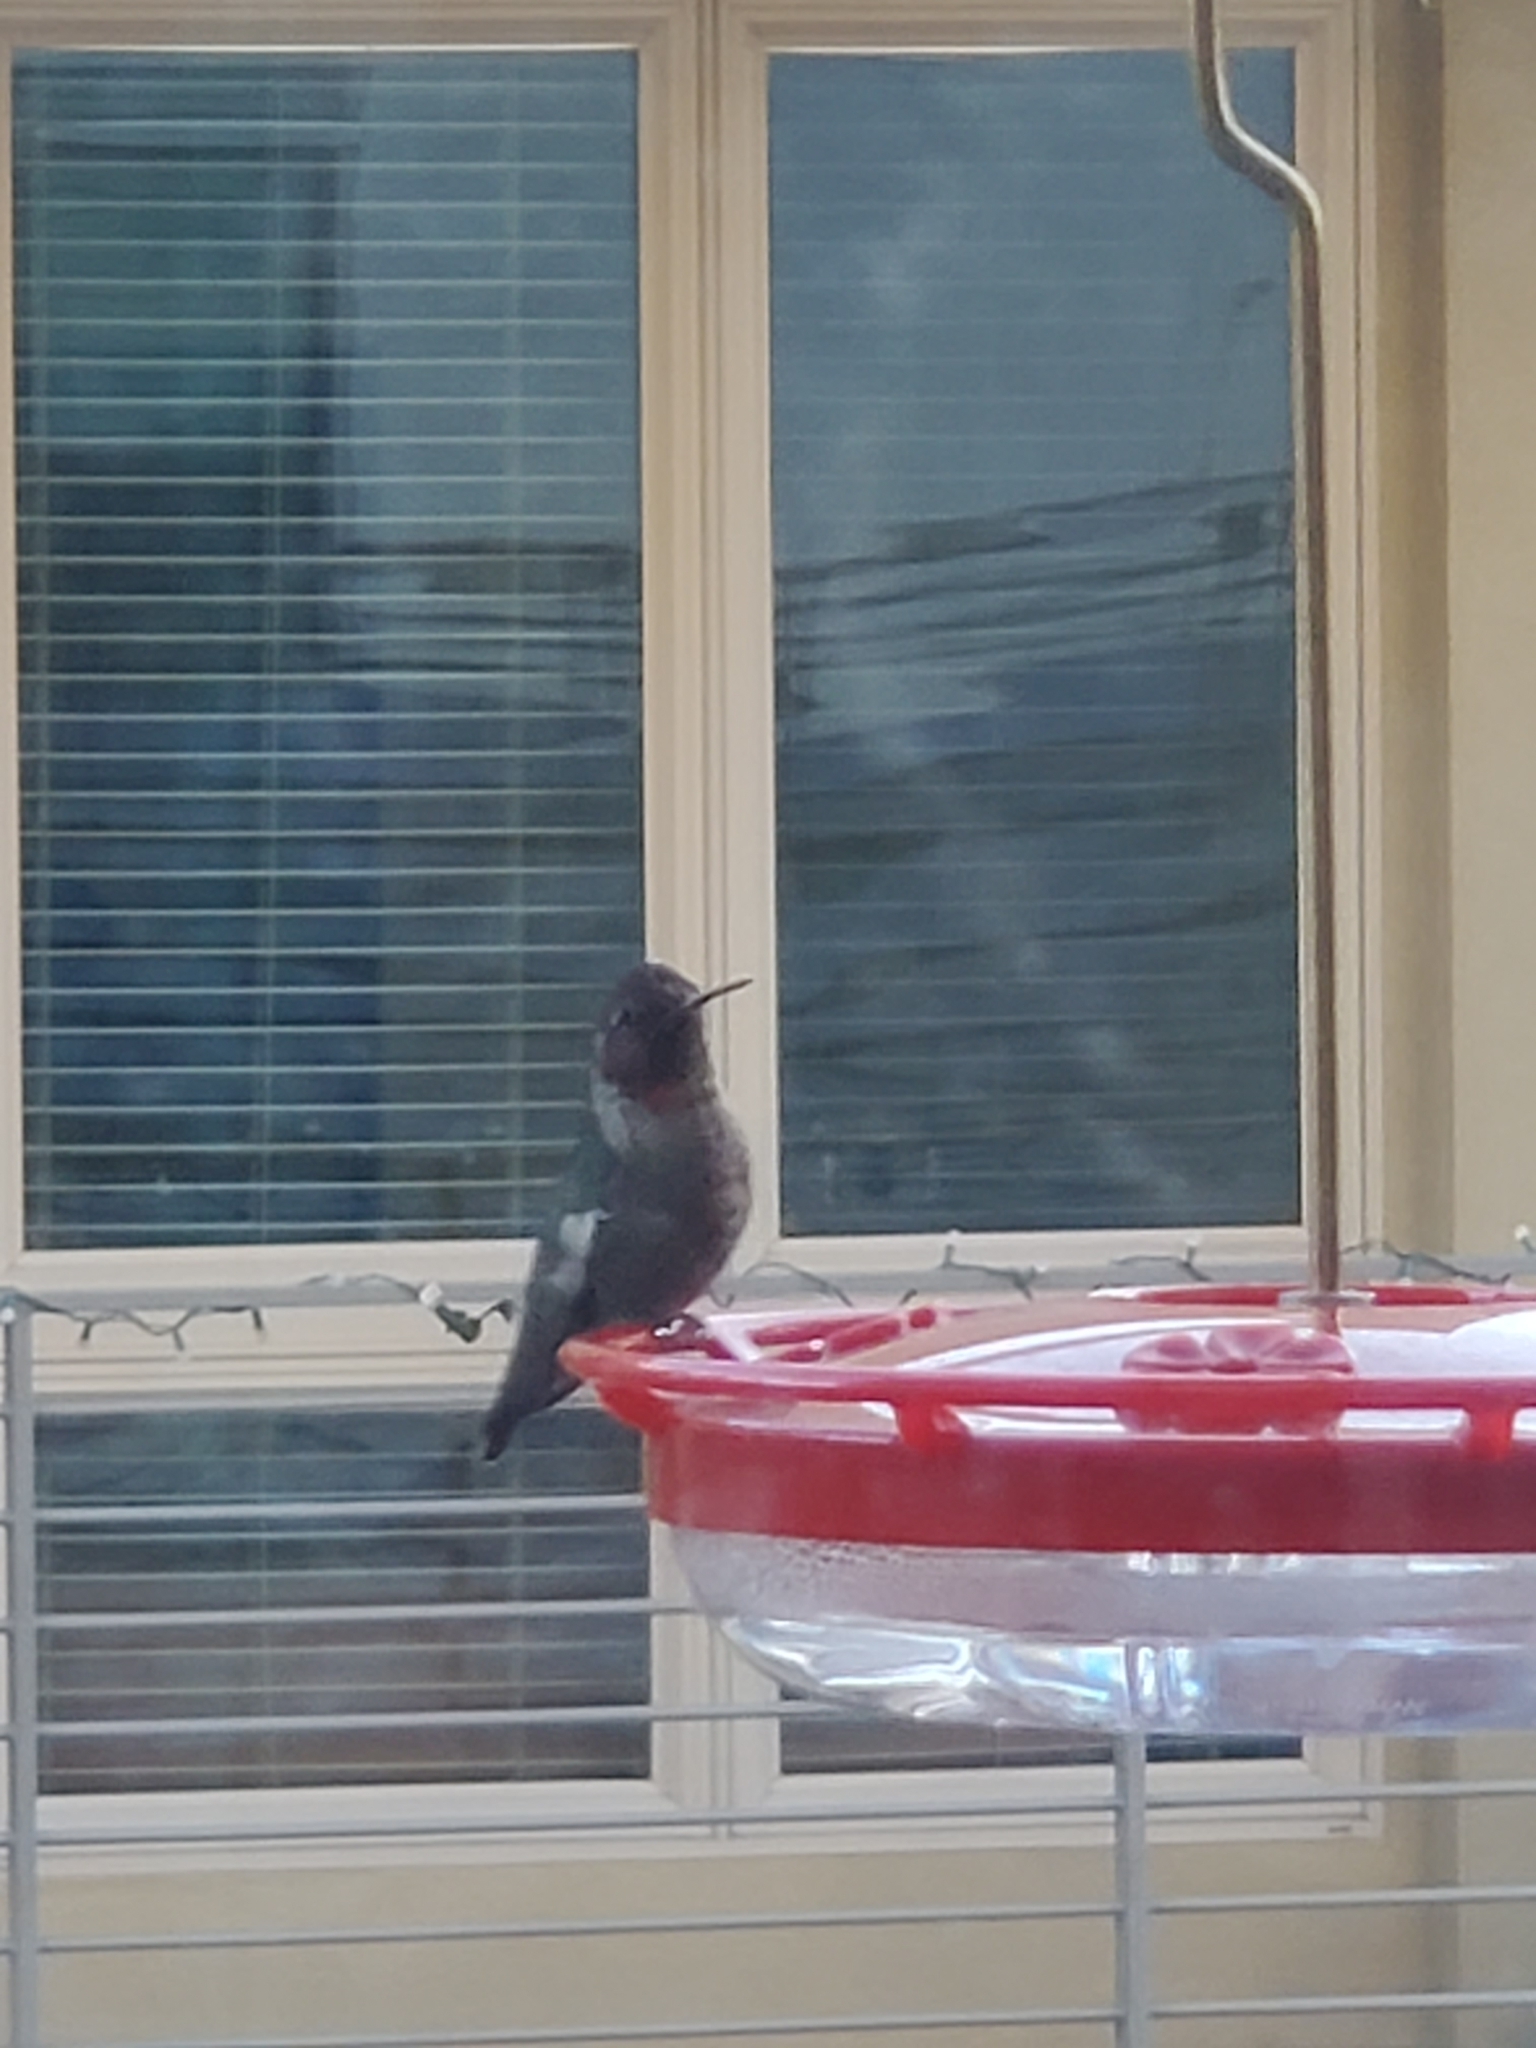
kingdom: Animalia
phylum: Chordata
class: Aves
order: Apodiformes
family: Trochilidae
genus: Calypte
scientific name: Calypte anna
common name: Anna's hummingbird
